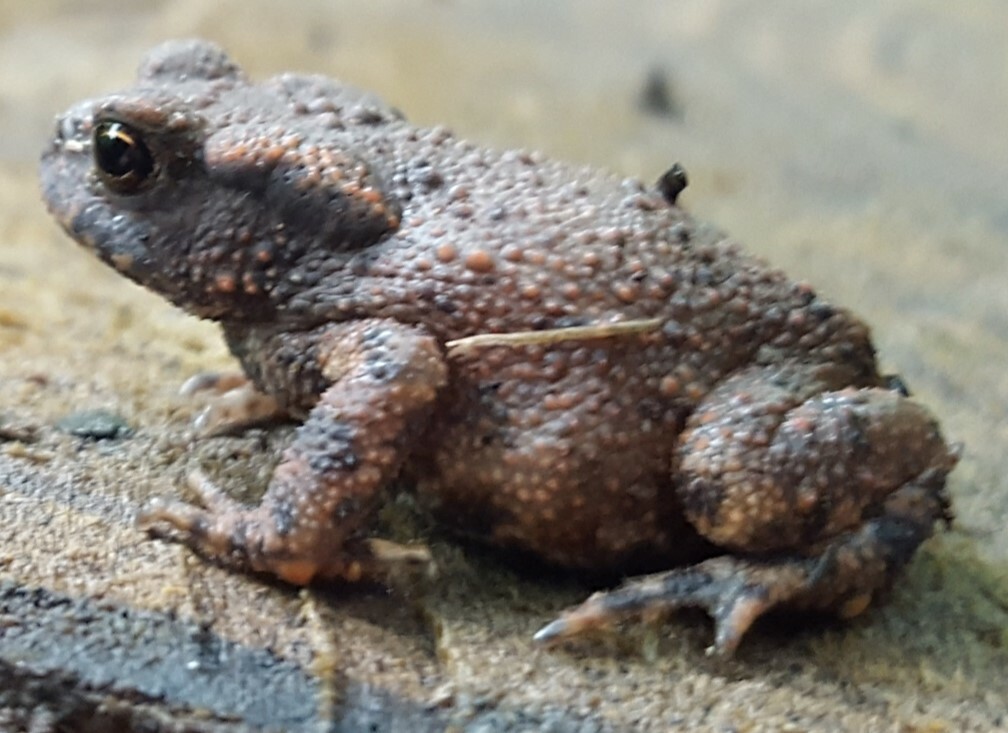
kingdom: Animalia
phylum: Chordata
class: Amphibia
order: Anura
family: Bufonidae
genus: Bufo
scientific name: Bufo bufo
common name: Common toad
